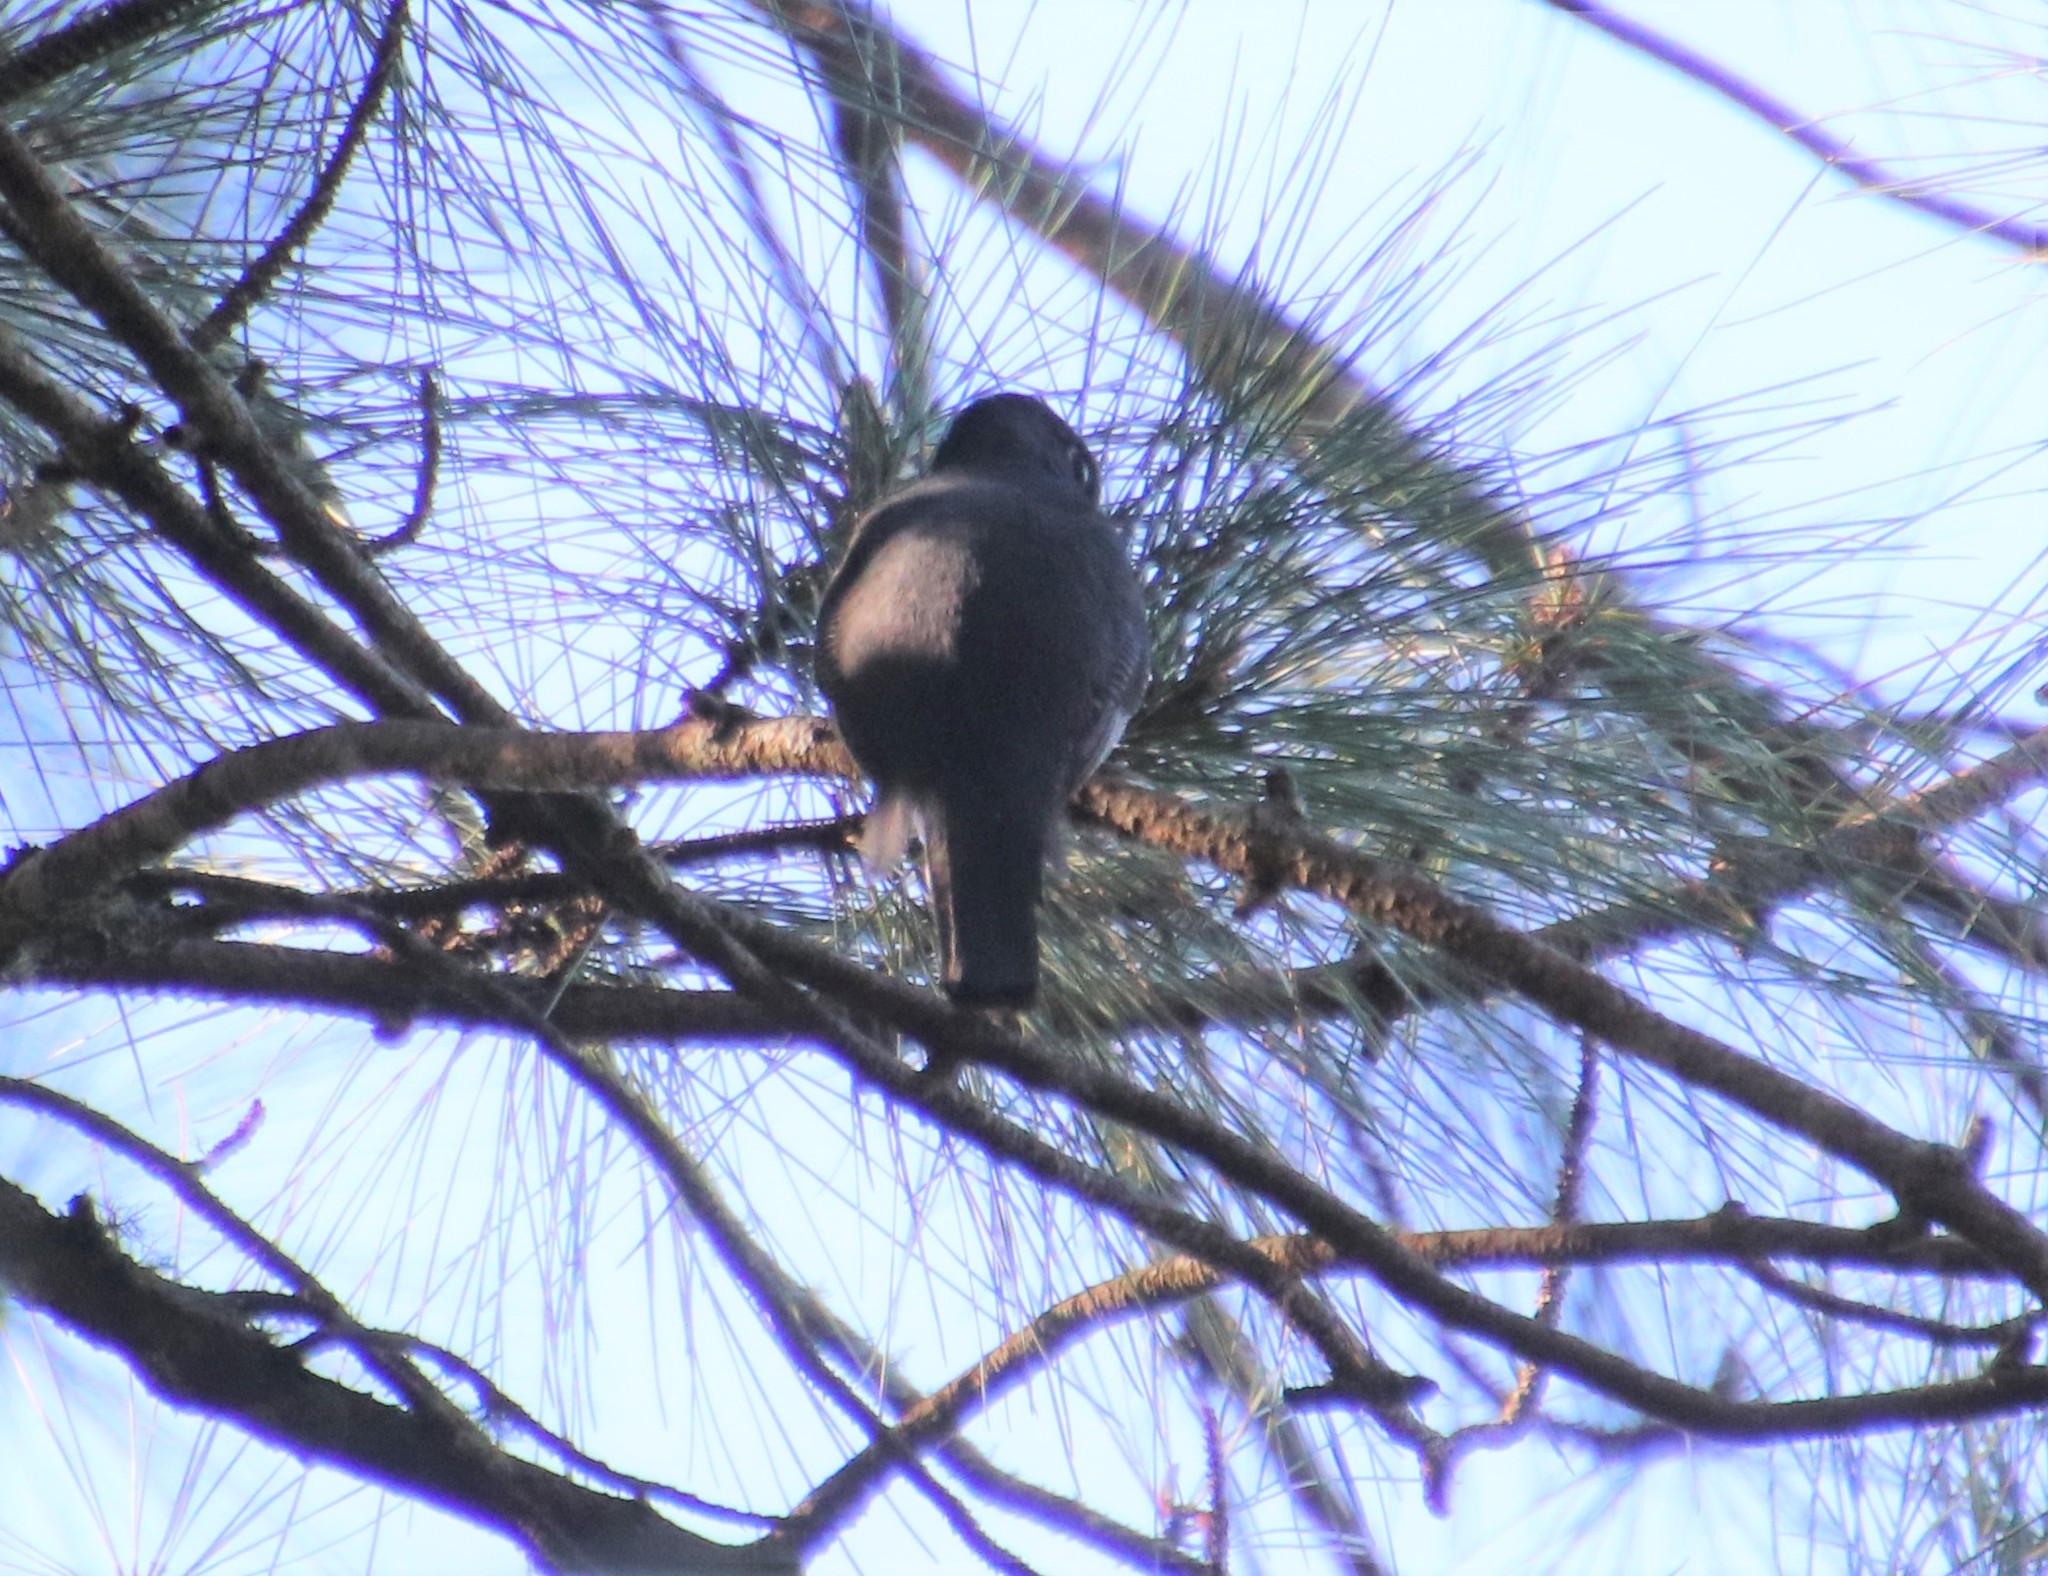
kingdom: Animalia
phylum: Chordata
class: Aves
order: Trogoniformes
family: Trogonidae
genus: Trogon
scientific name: Trogon surrucura
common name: Surucua trogon
